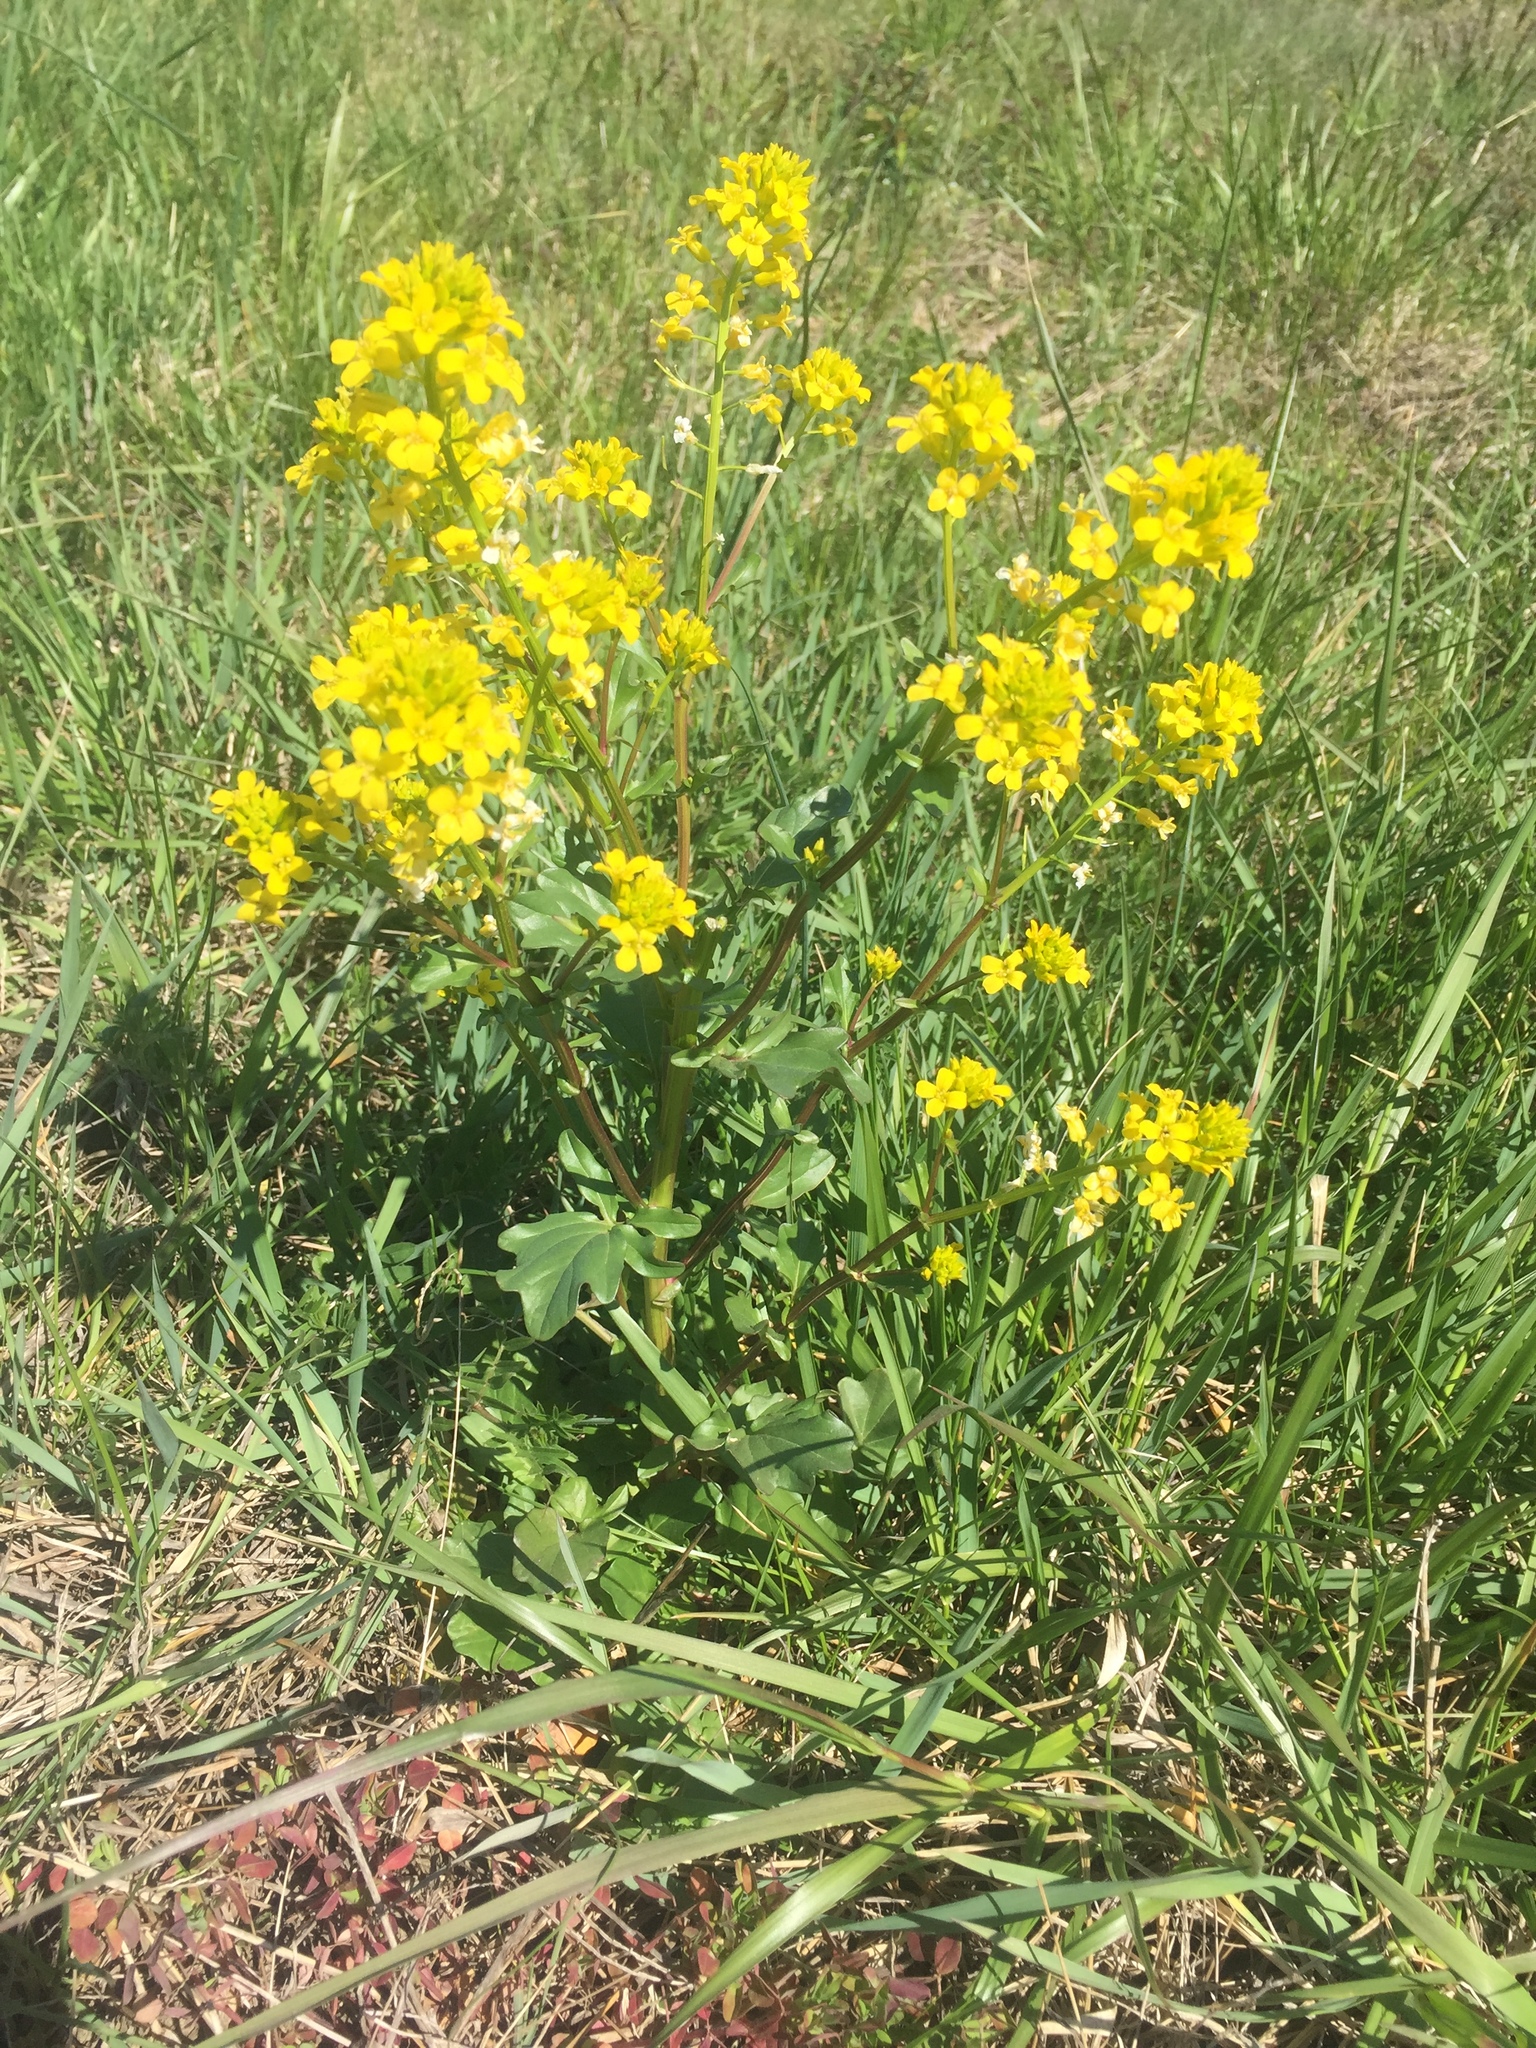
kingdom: Plantae
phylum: Tracheophyta
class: Magnoliopsida
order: Brassicales
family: Brassicaceae
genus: Barbarea
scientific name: Barbarea vulgaris
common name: Cressy-greens
